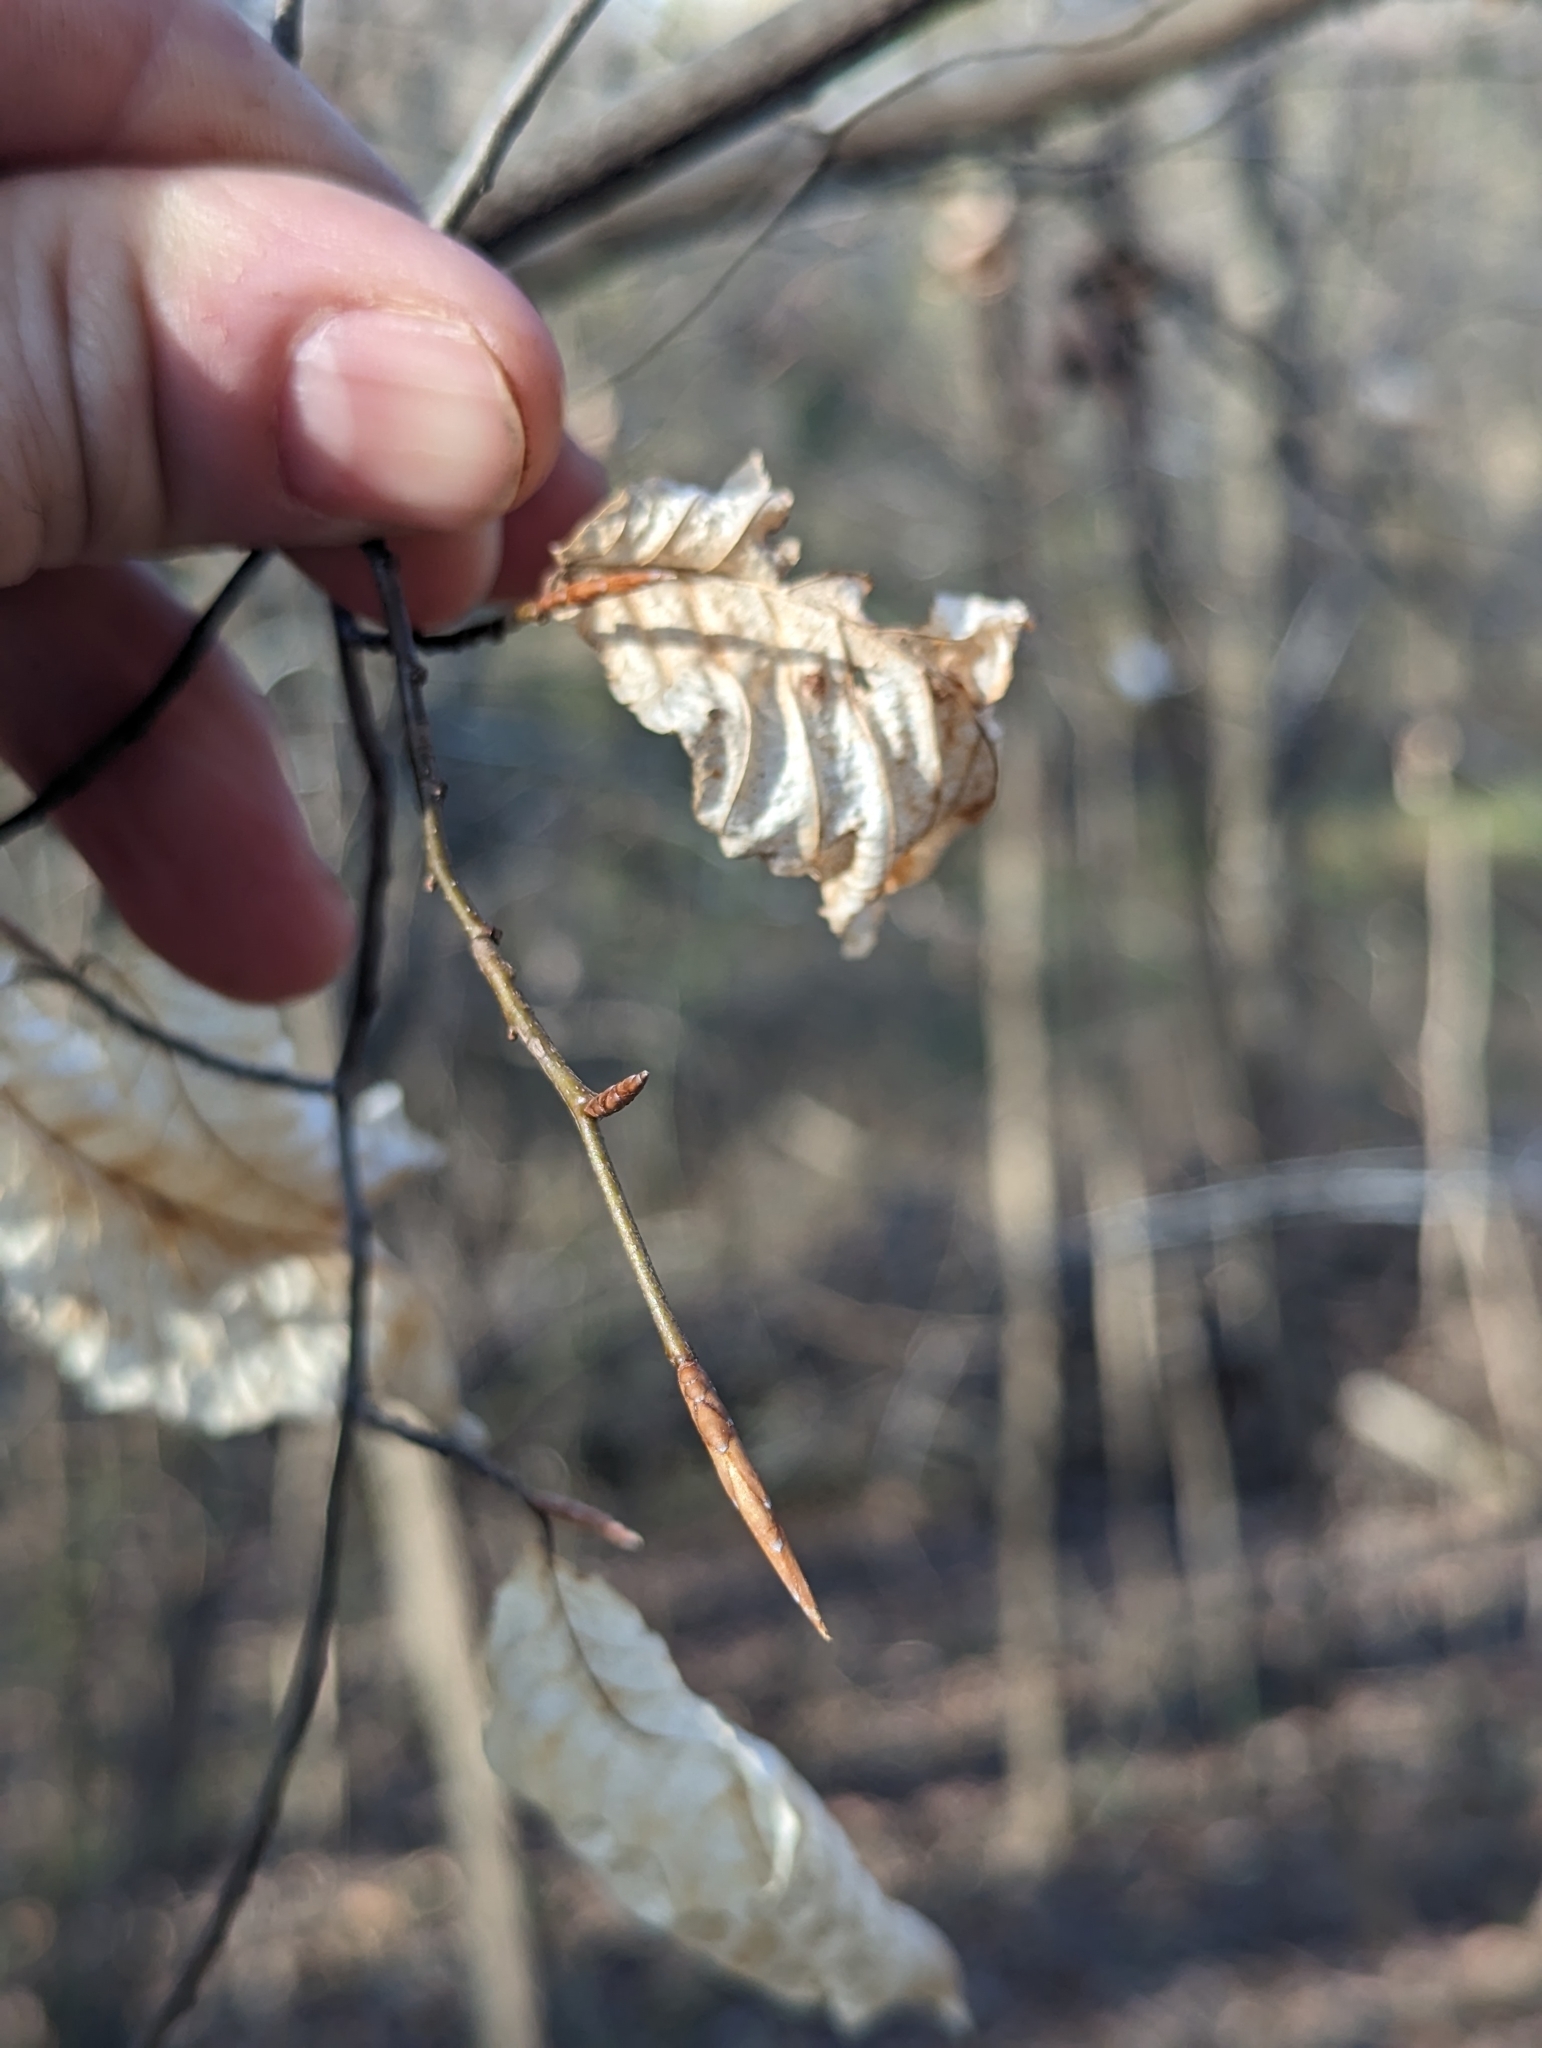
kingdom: Plantae
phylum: Tracheophyta
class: Magnoliopsida
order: Fagales
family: Fagaceae
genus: Fagus
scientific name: Fagus grandifolia
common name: American beech
